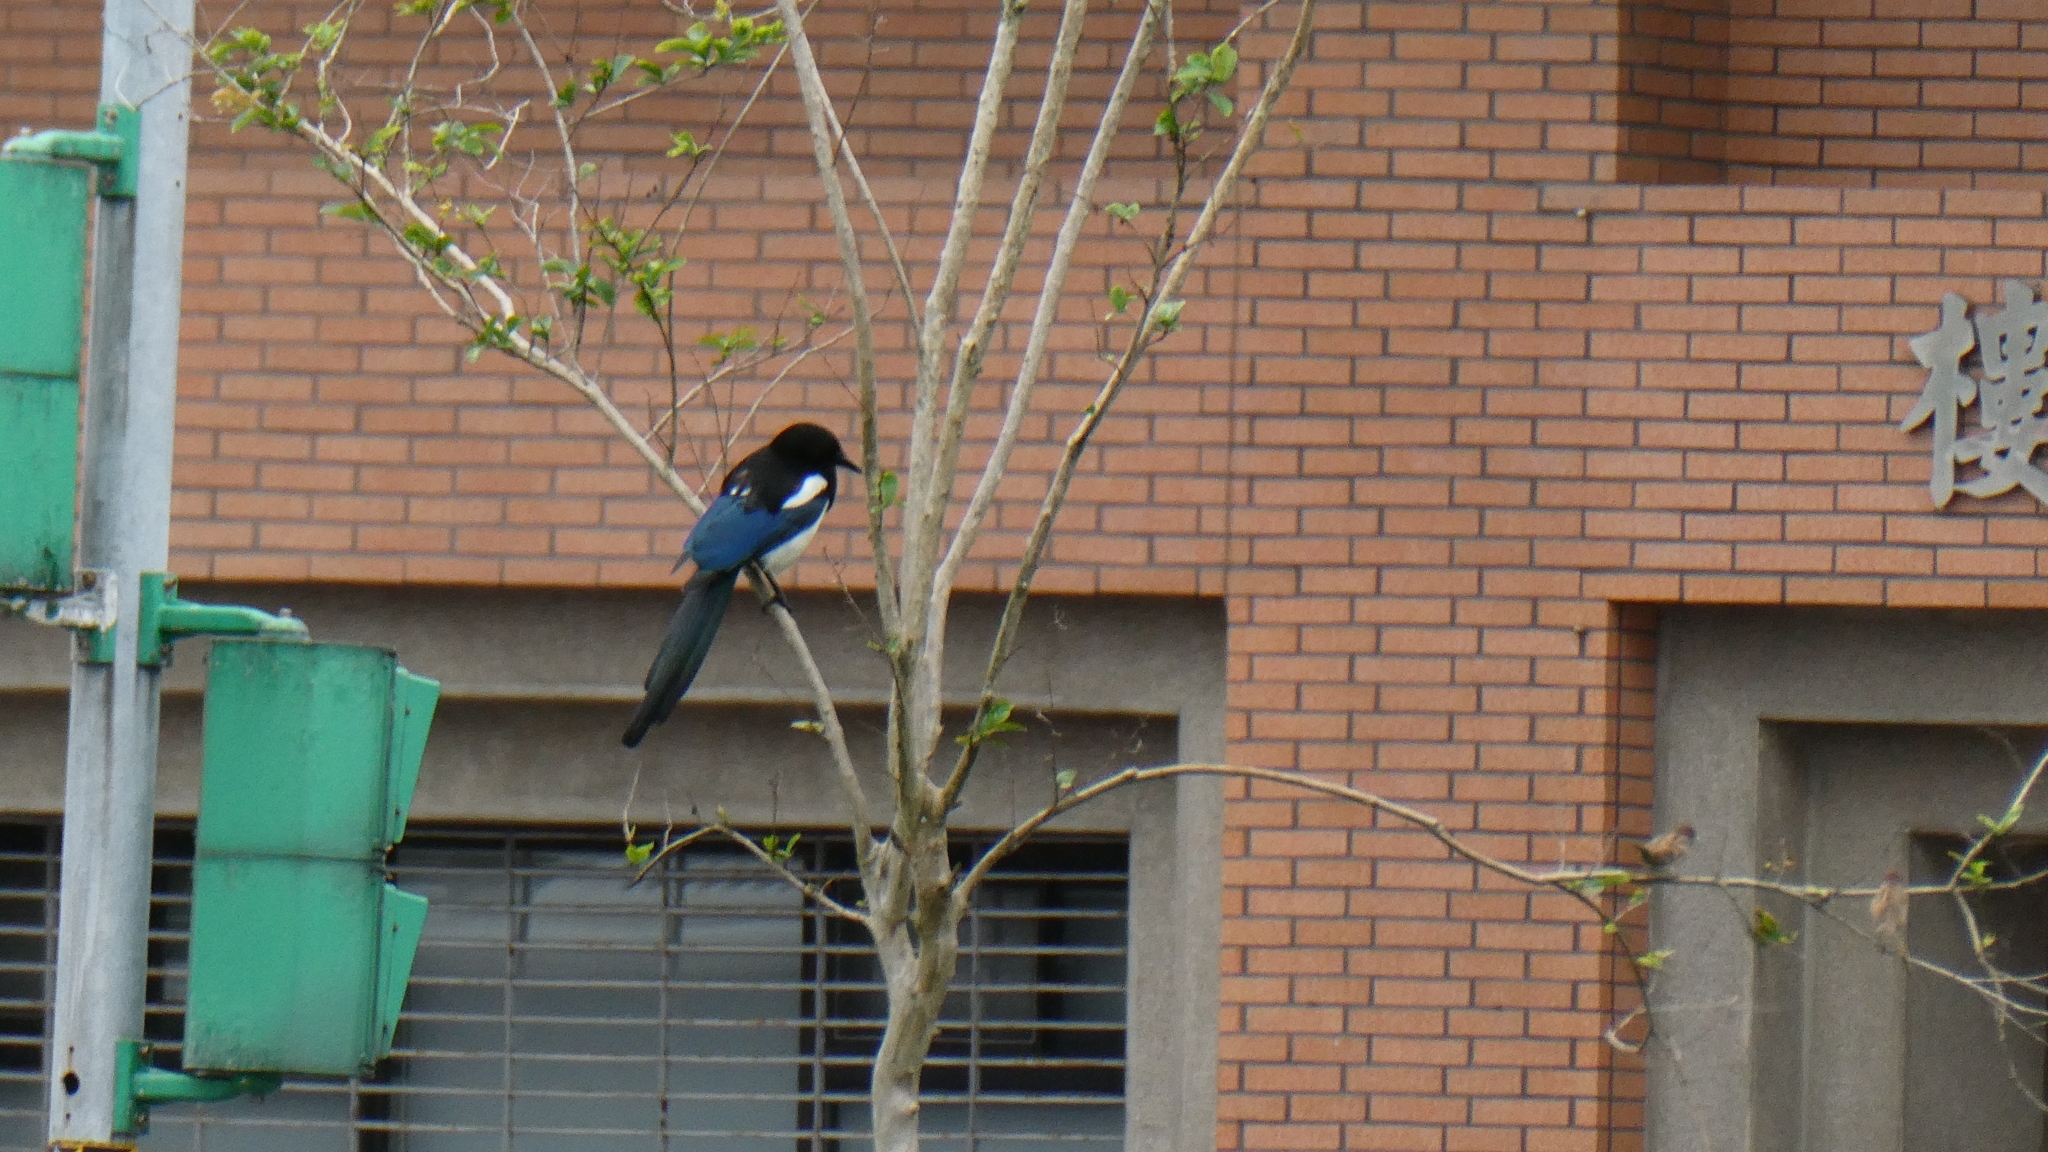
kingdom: Animalia
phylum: Chordata
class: Aves
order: Passeriformes
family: Corvidae
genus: Pica
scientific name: Pica serica
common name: Oriental magpie
